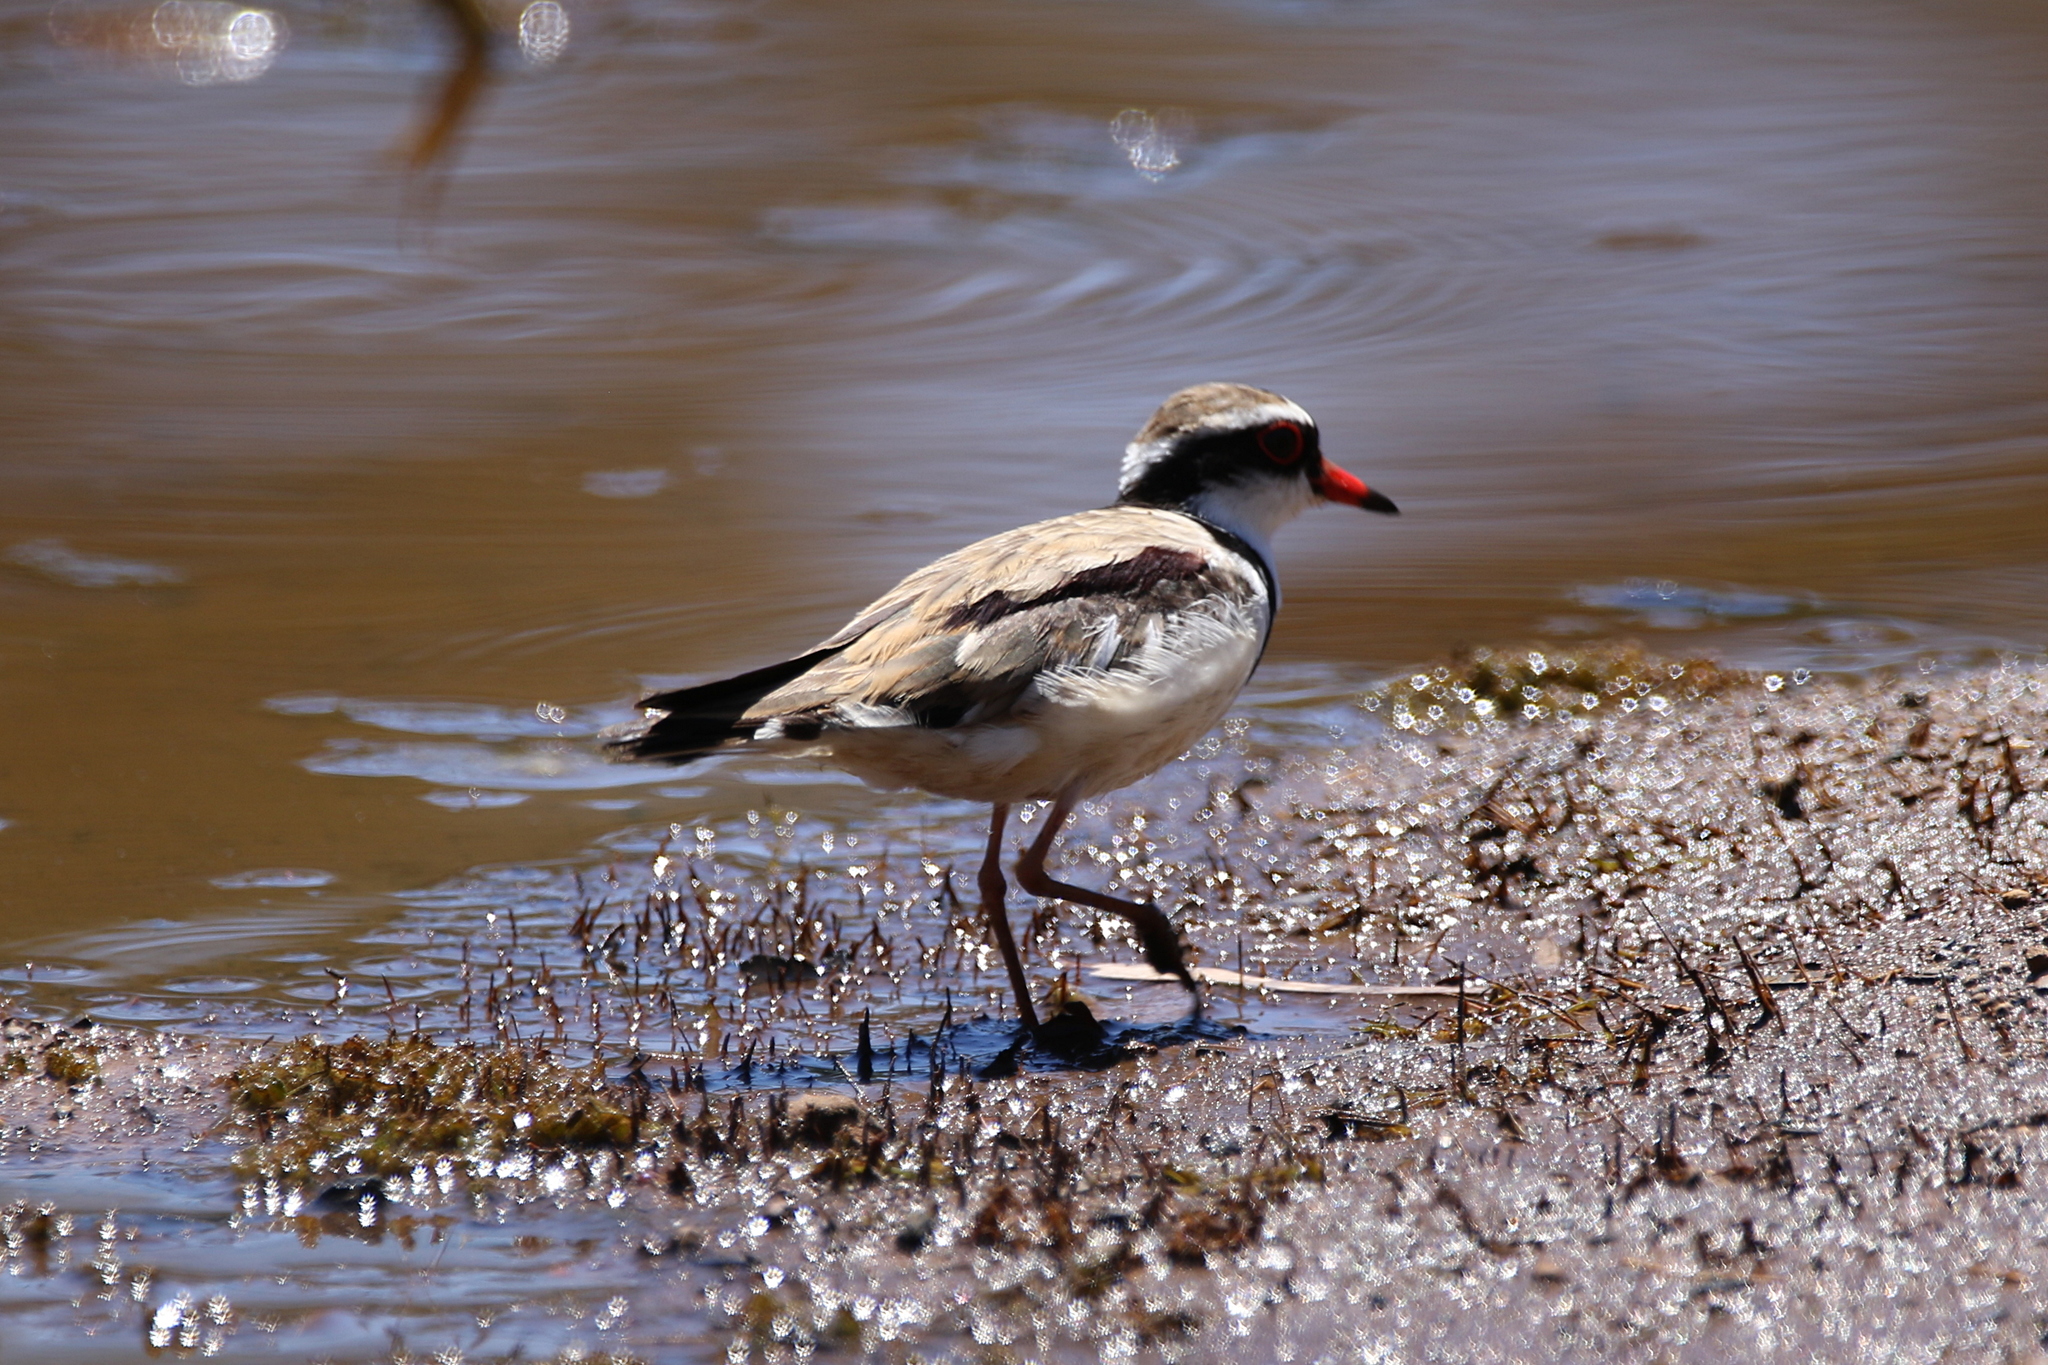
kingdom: Animalia
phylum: Chordata
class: Aves
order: Charadriiformes
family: Charadriidae
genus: Elseyornis
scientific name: Elseyornis melanops
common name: Black-fronted dotterel
